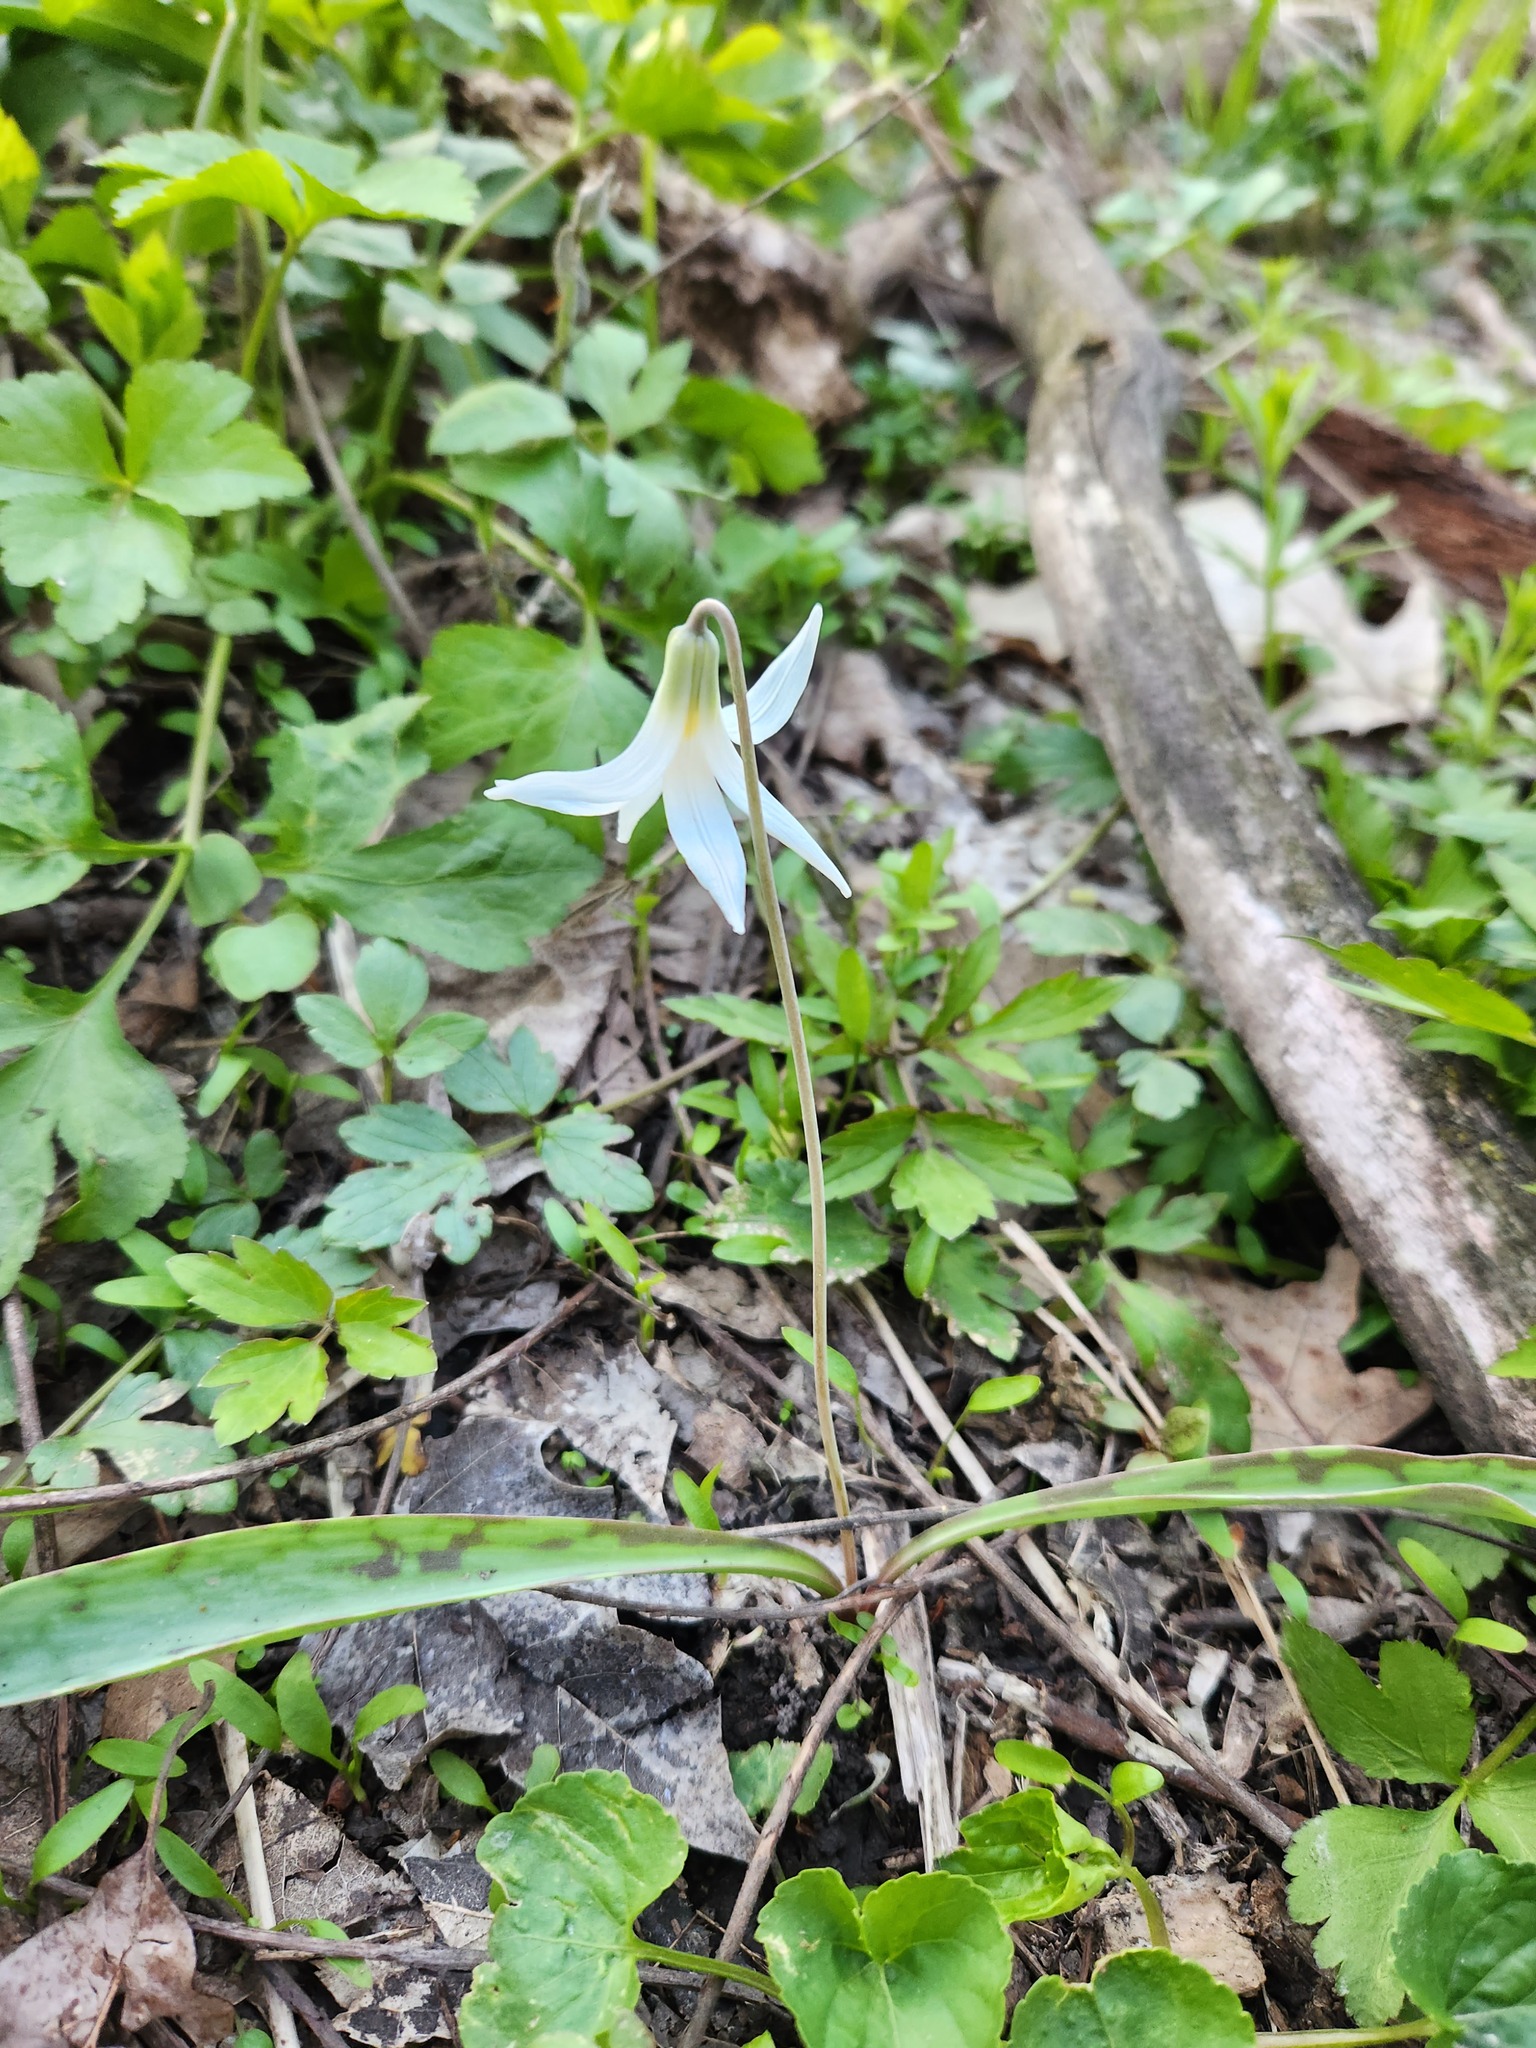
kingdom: Plantae
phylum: Tracheophyta
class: Liliopsida
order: Liliales
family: Liliaceae
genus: Erythronium
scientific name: Erythronium albidum
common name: White trout-lily
